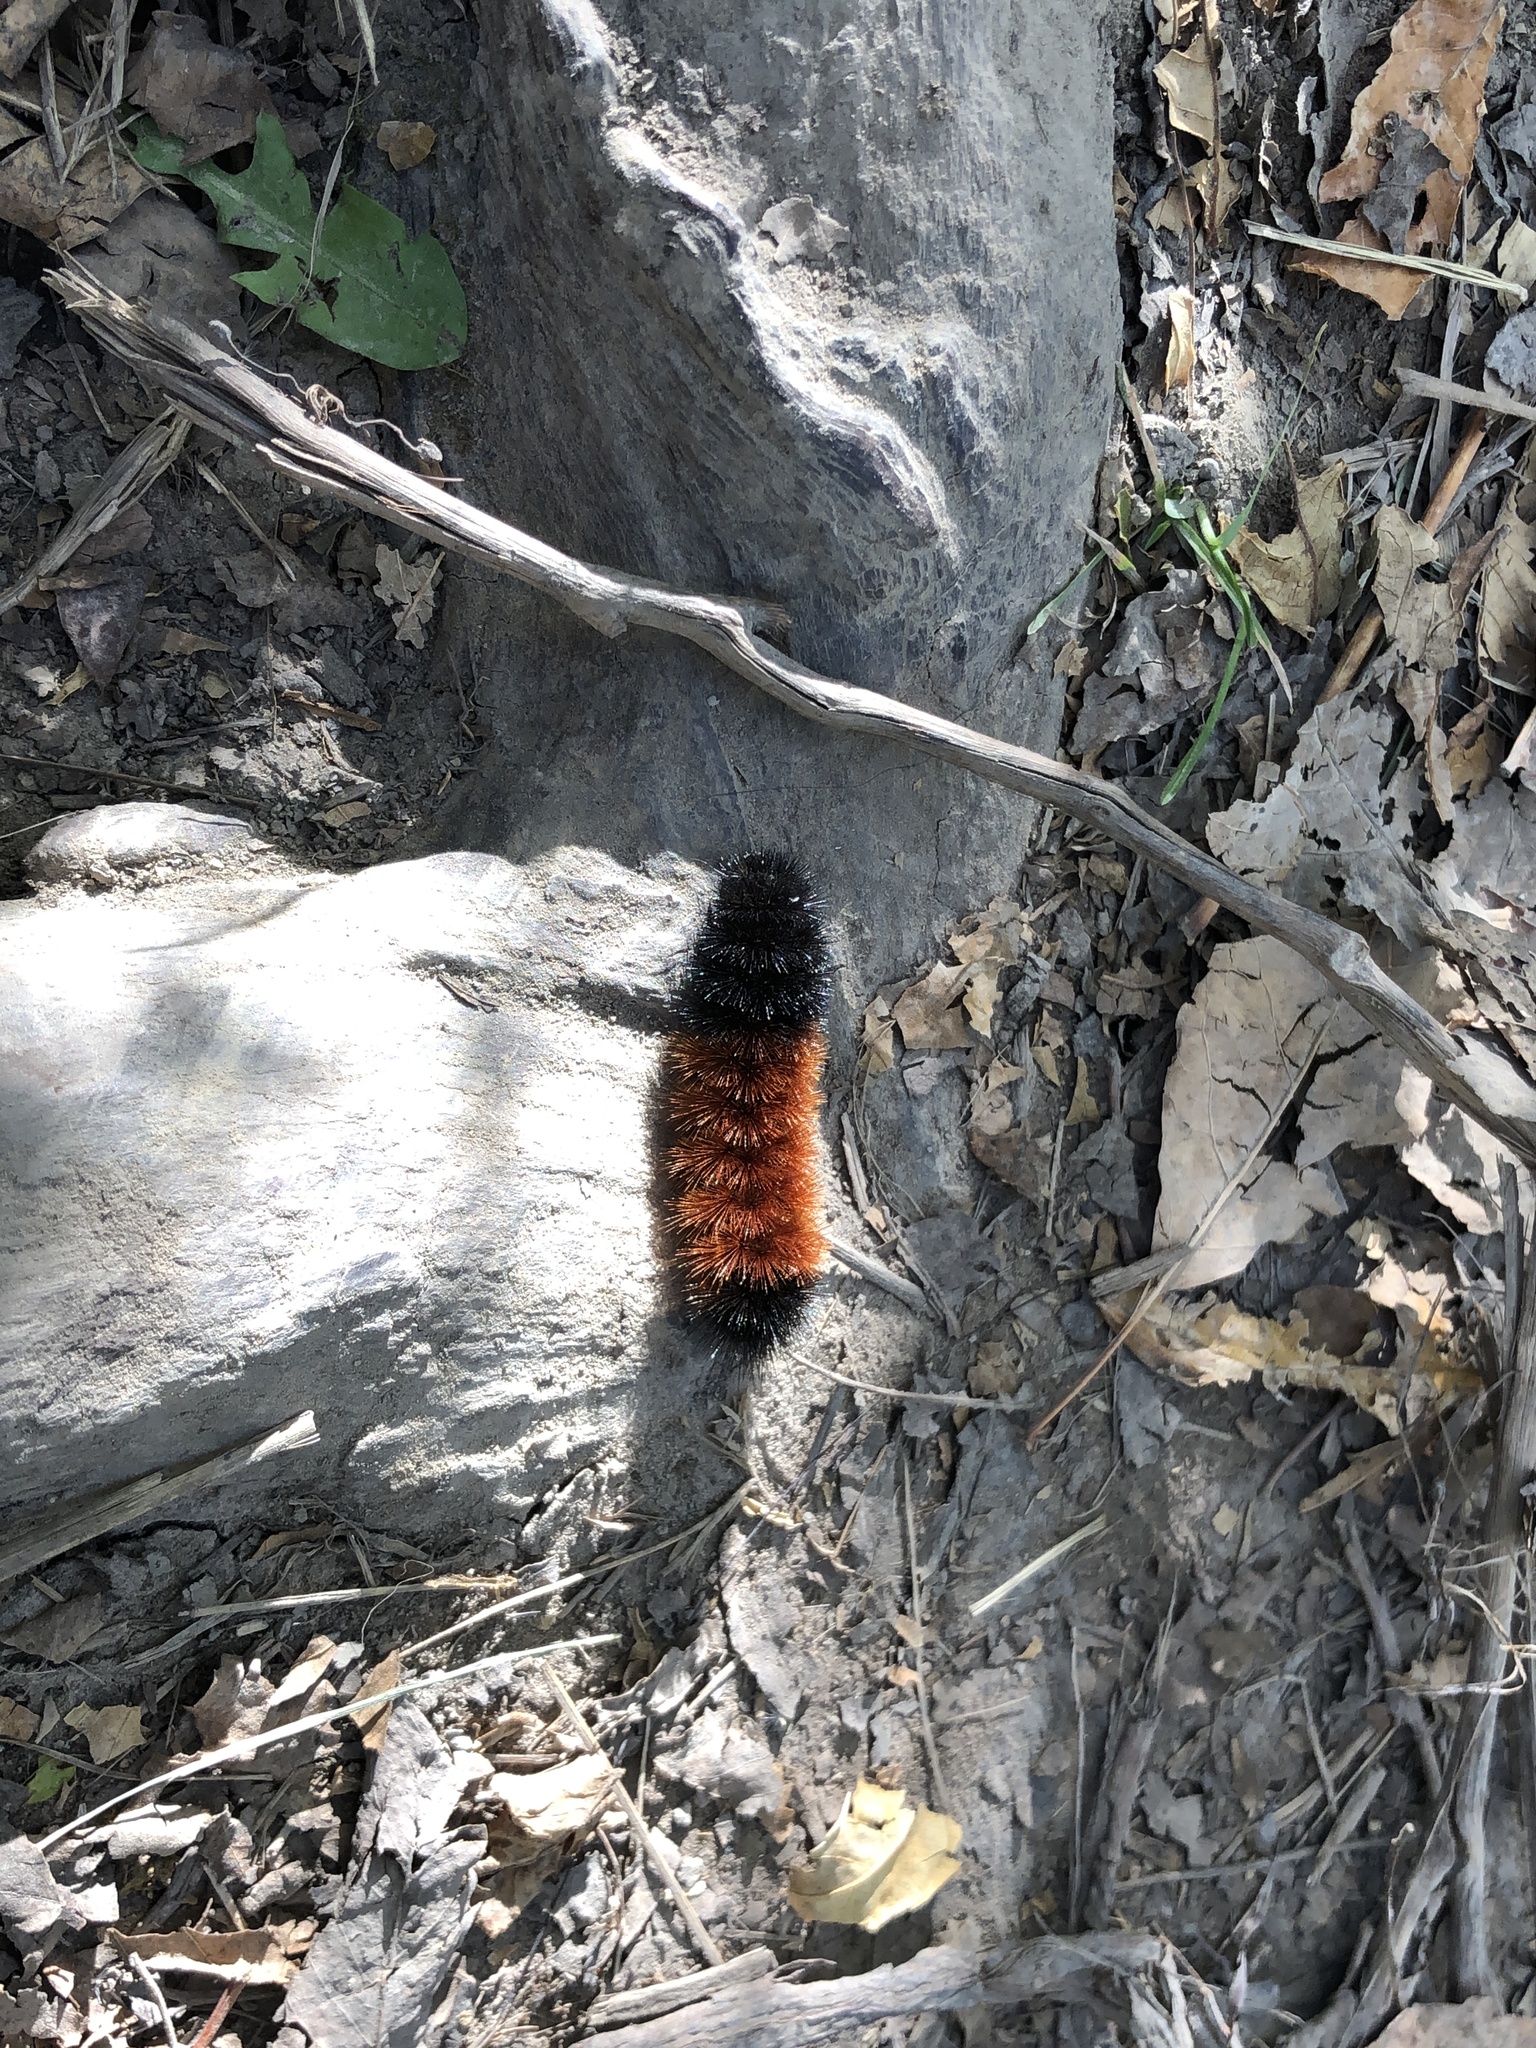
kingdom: Animalia
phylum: Arthropoda
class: Insecta
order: Lepidoptera
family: Erebidae
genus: Pyrrharctia
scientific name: Pyrrharctia isabella
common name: Isabella tiger moth
